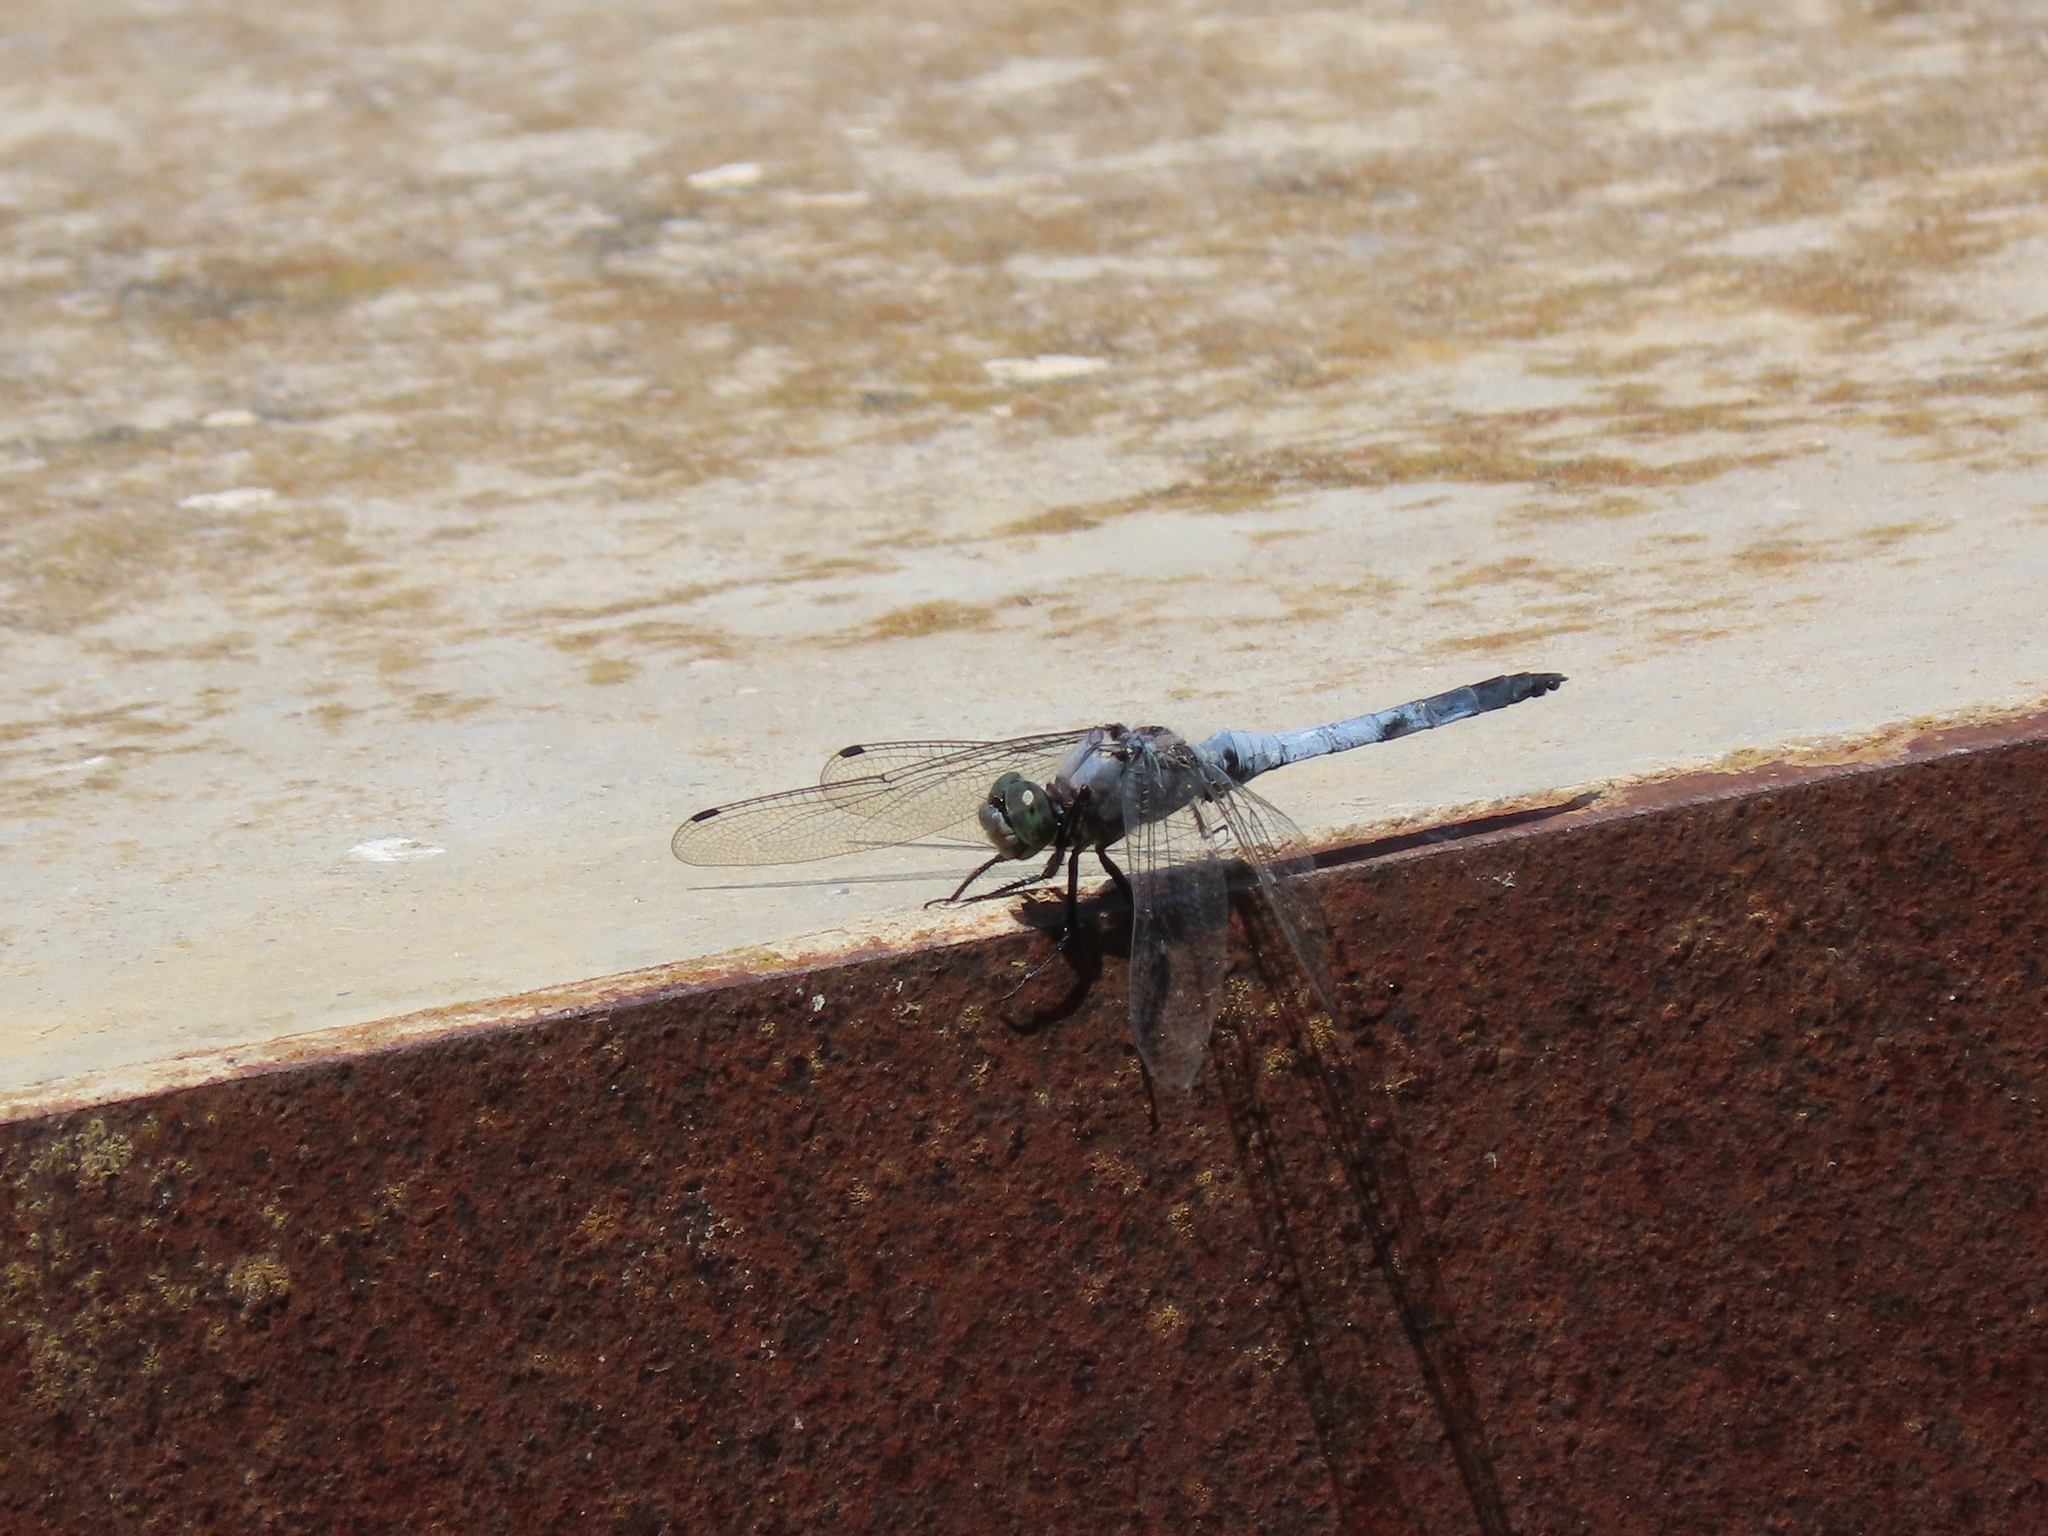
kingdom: Animalia
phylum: Arthropoda
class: Insecta
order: Odonata
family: Libellulidae
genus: Orthetrum
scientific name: Orthetrum cancellatum
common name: Black-tailed skimmer
